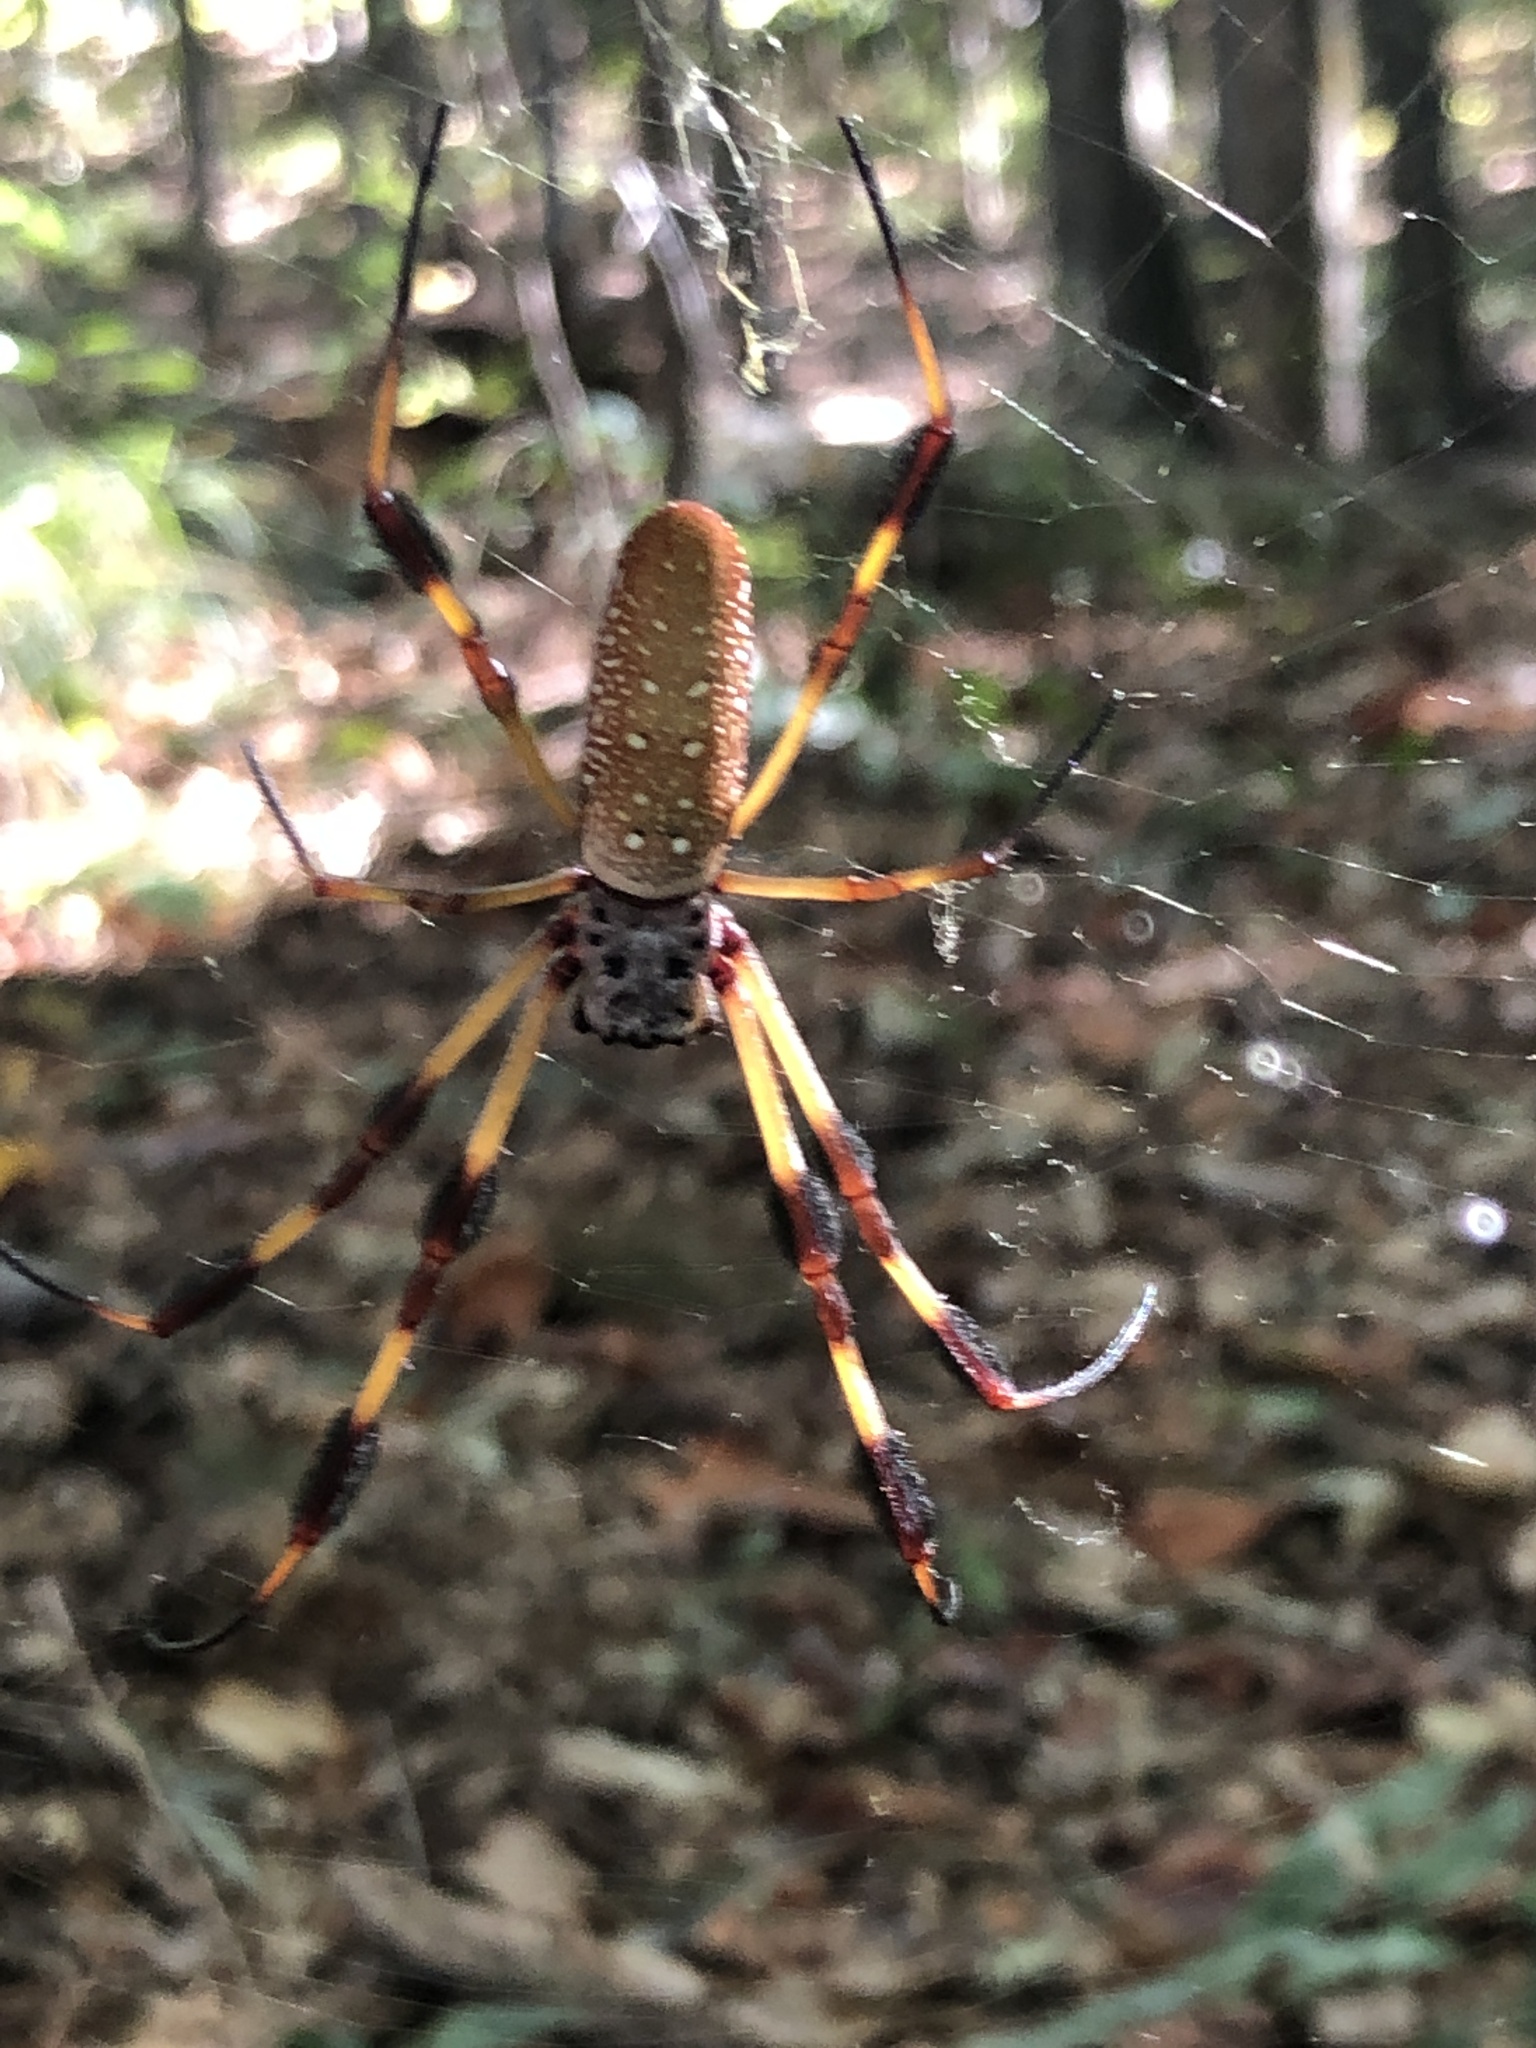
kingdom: Animalia
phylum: Arthropoda
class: Arachnida
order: Araneae
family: Araneidae
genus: Trichonephila
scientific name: Trichonephila clavipes
